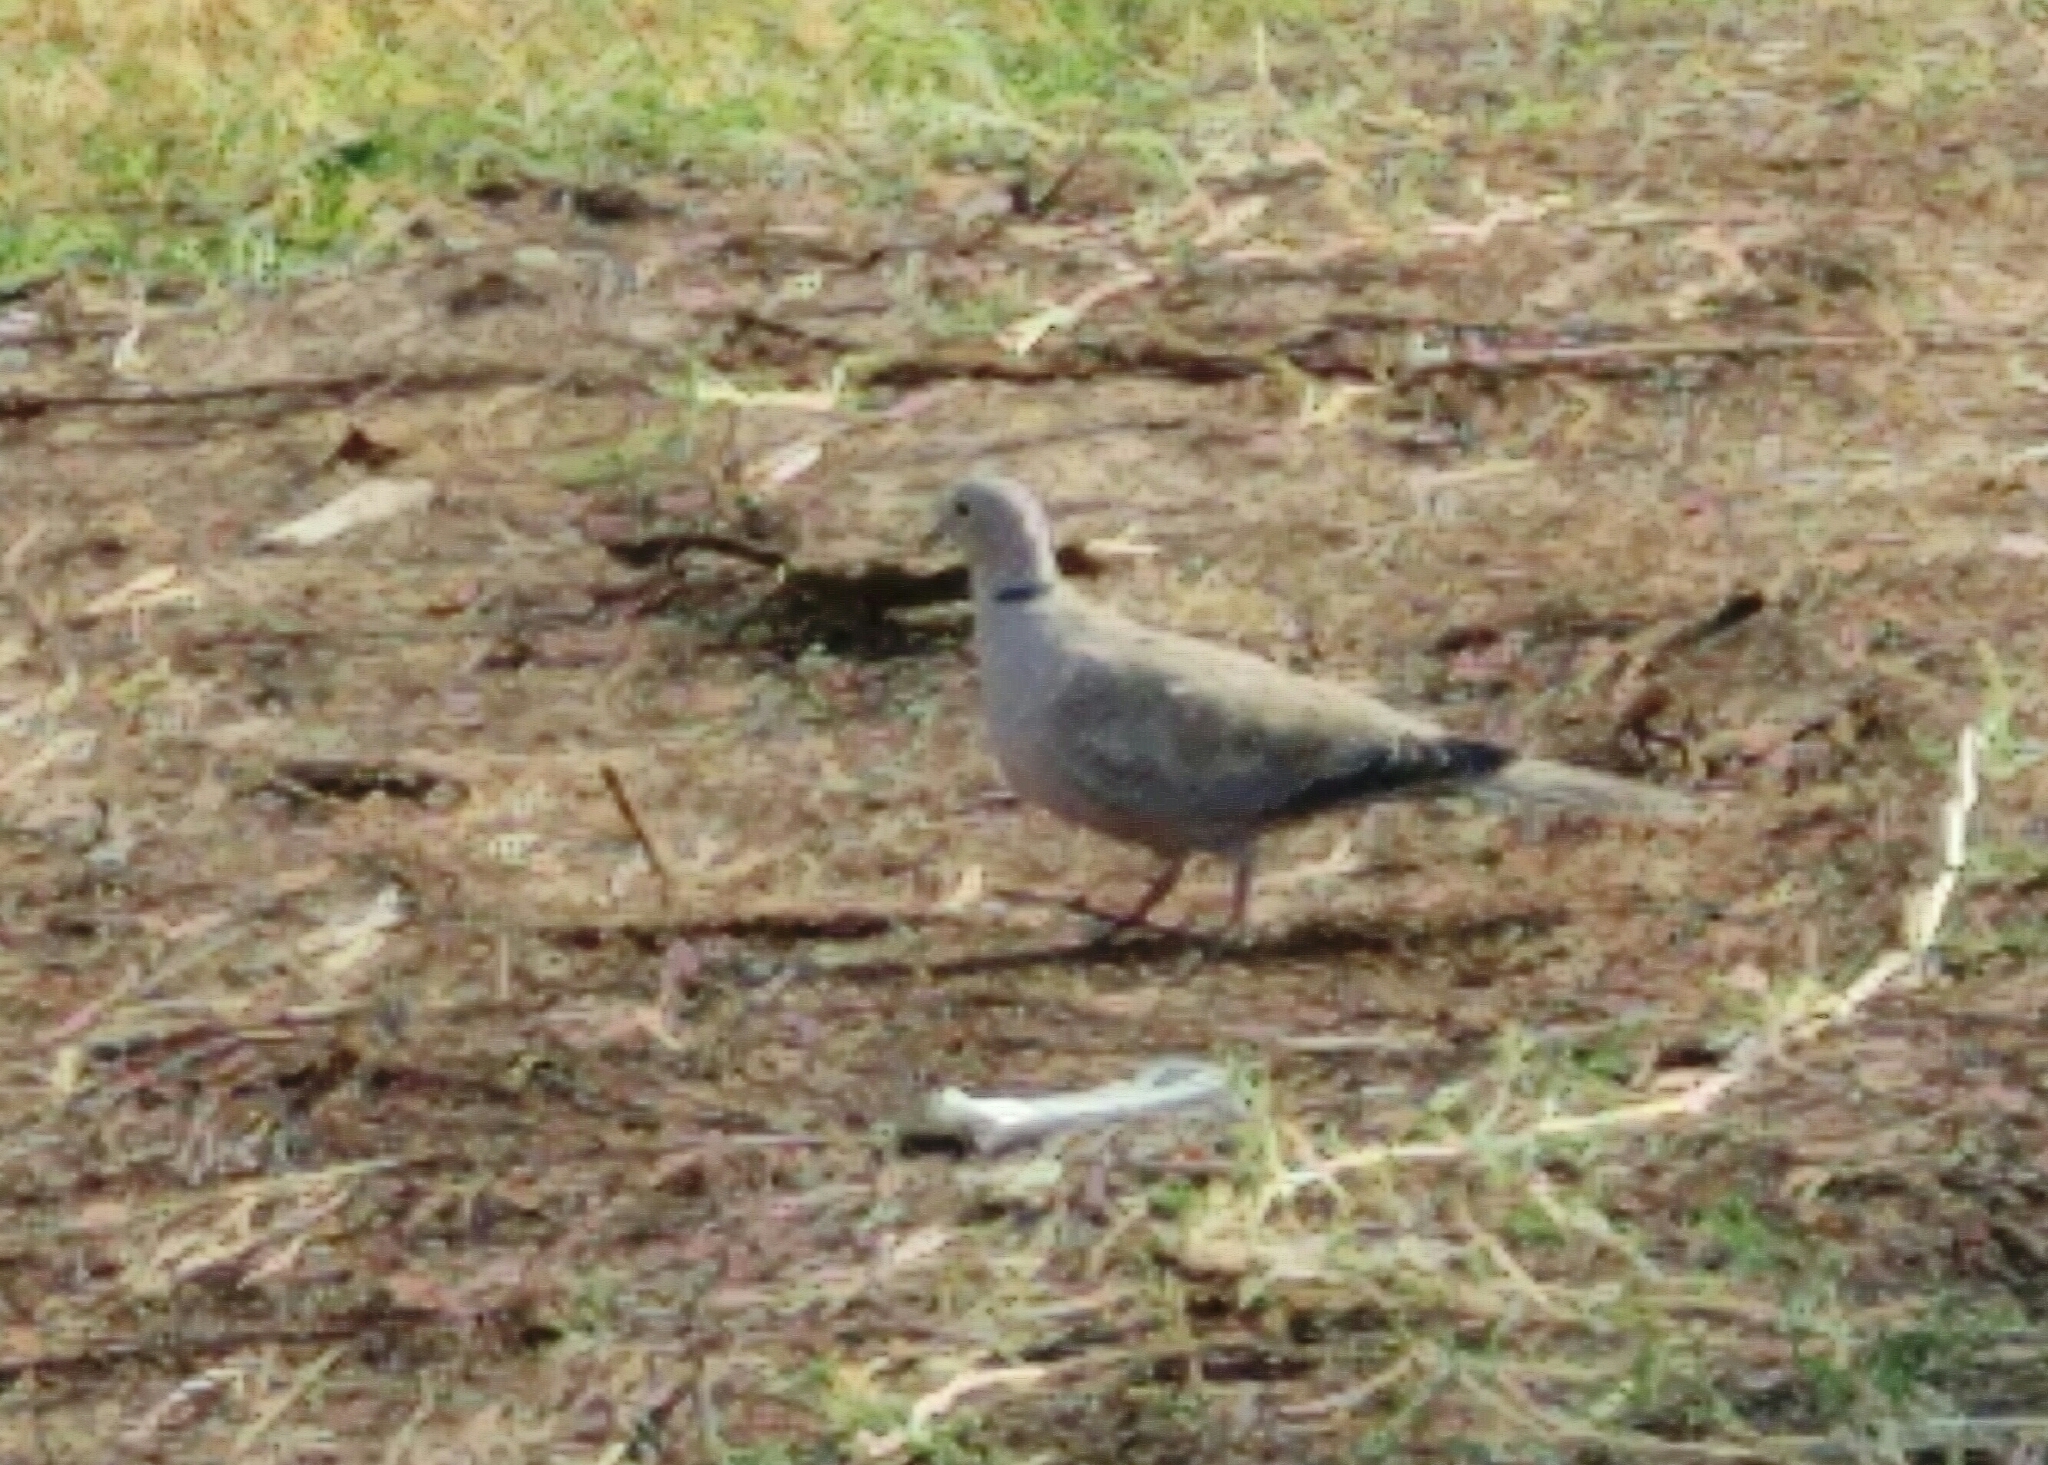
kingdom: Animalia
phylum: Chordata
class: Aves
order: Columbiformes
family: Columbidae
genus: Streptopelia
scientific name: Streptopelia decaocto
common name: Eurasian collared dove
